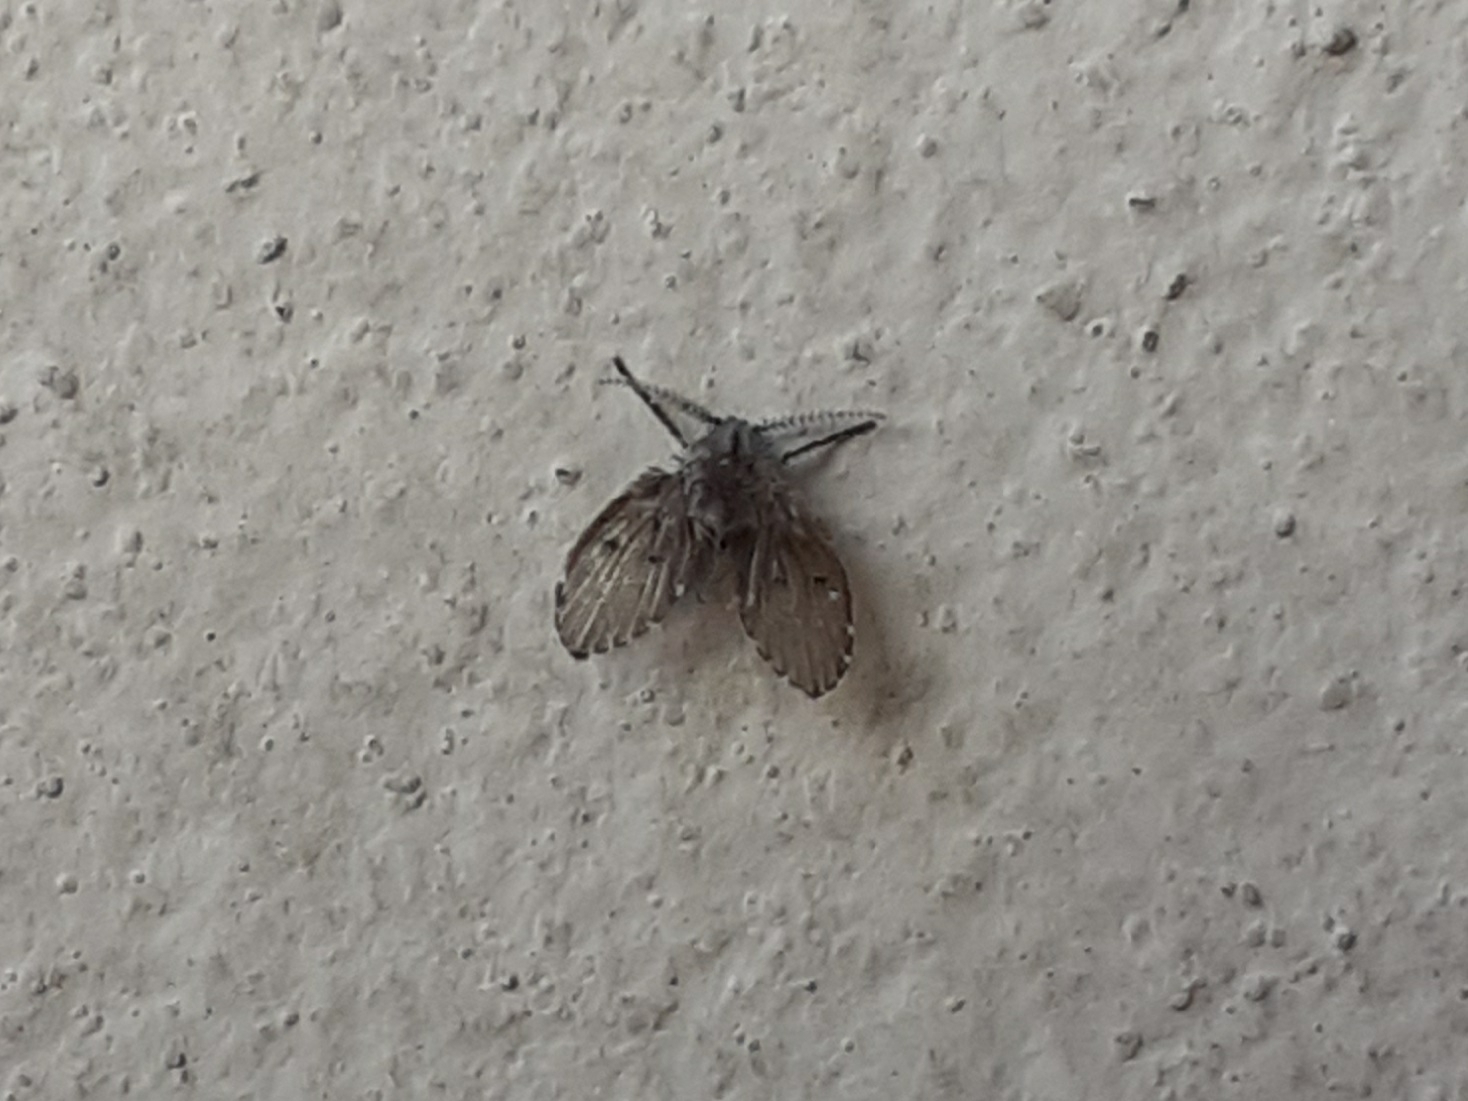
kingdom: Animalia
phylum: Arthropoda
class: Insecta
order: Diptera
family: Psychodidae
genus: Clogmia
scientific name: Clogmia albipunctatus
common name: White-spotted moth fly
